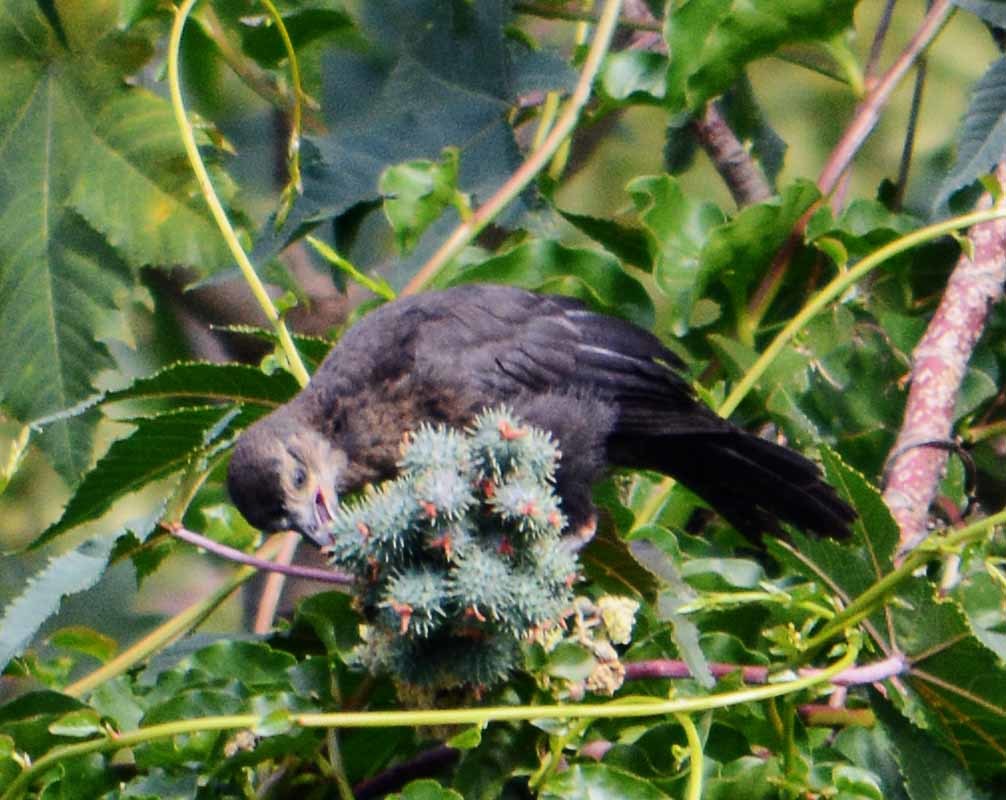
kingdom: Animalia
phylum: Chordata
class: Aves
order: Passeriformes
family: Icteridae
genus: Quiscalus
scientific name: Quiscalus mexicanus
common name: Great-tailed grackle
